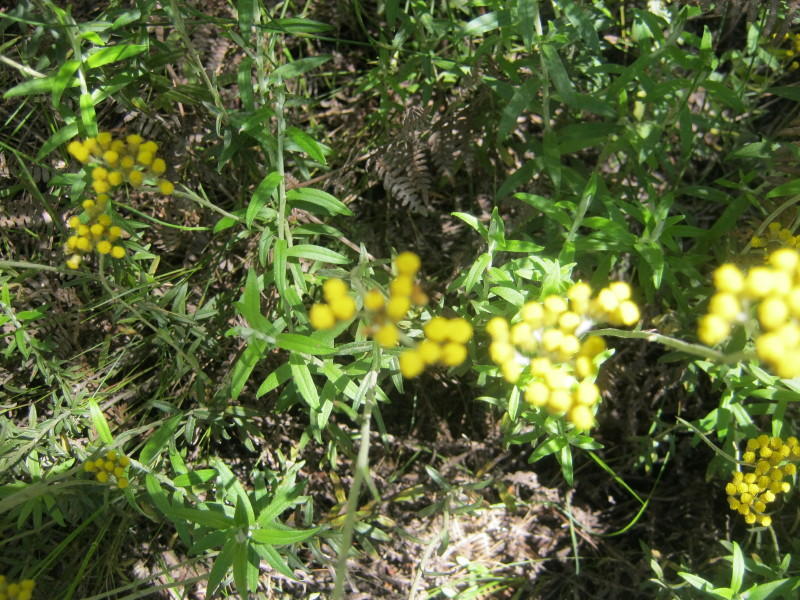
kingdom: Plantae
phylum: Tracheophyta
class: Magnoliopsida
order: Asterales
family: Asteraceae
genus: Helichrysum
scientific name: Helichrysum cymosum
